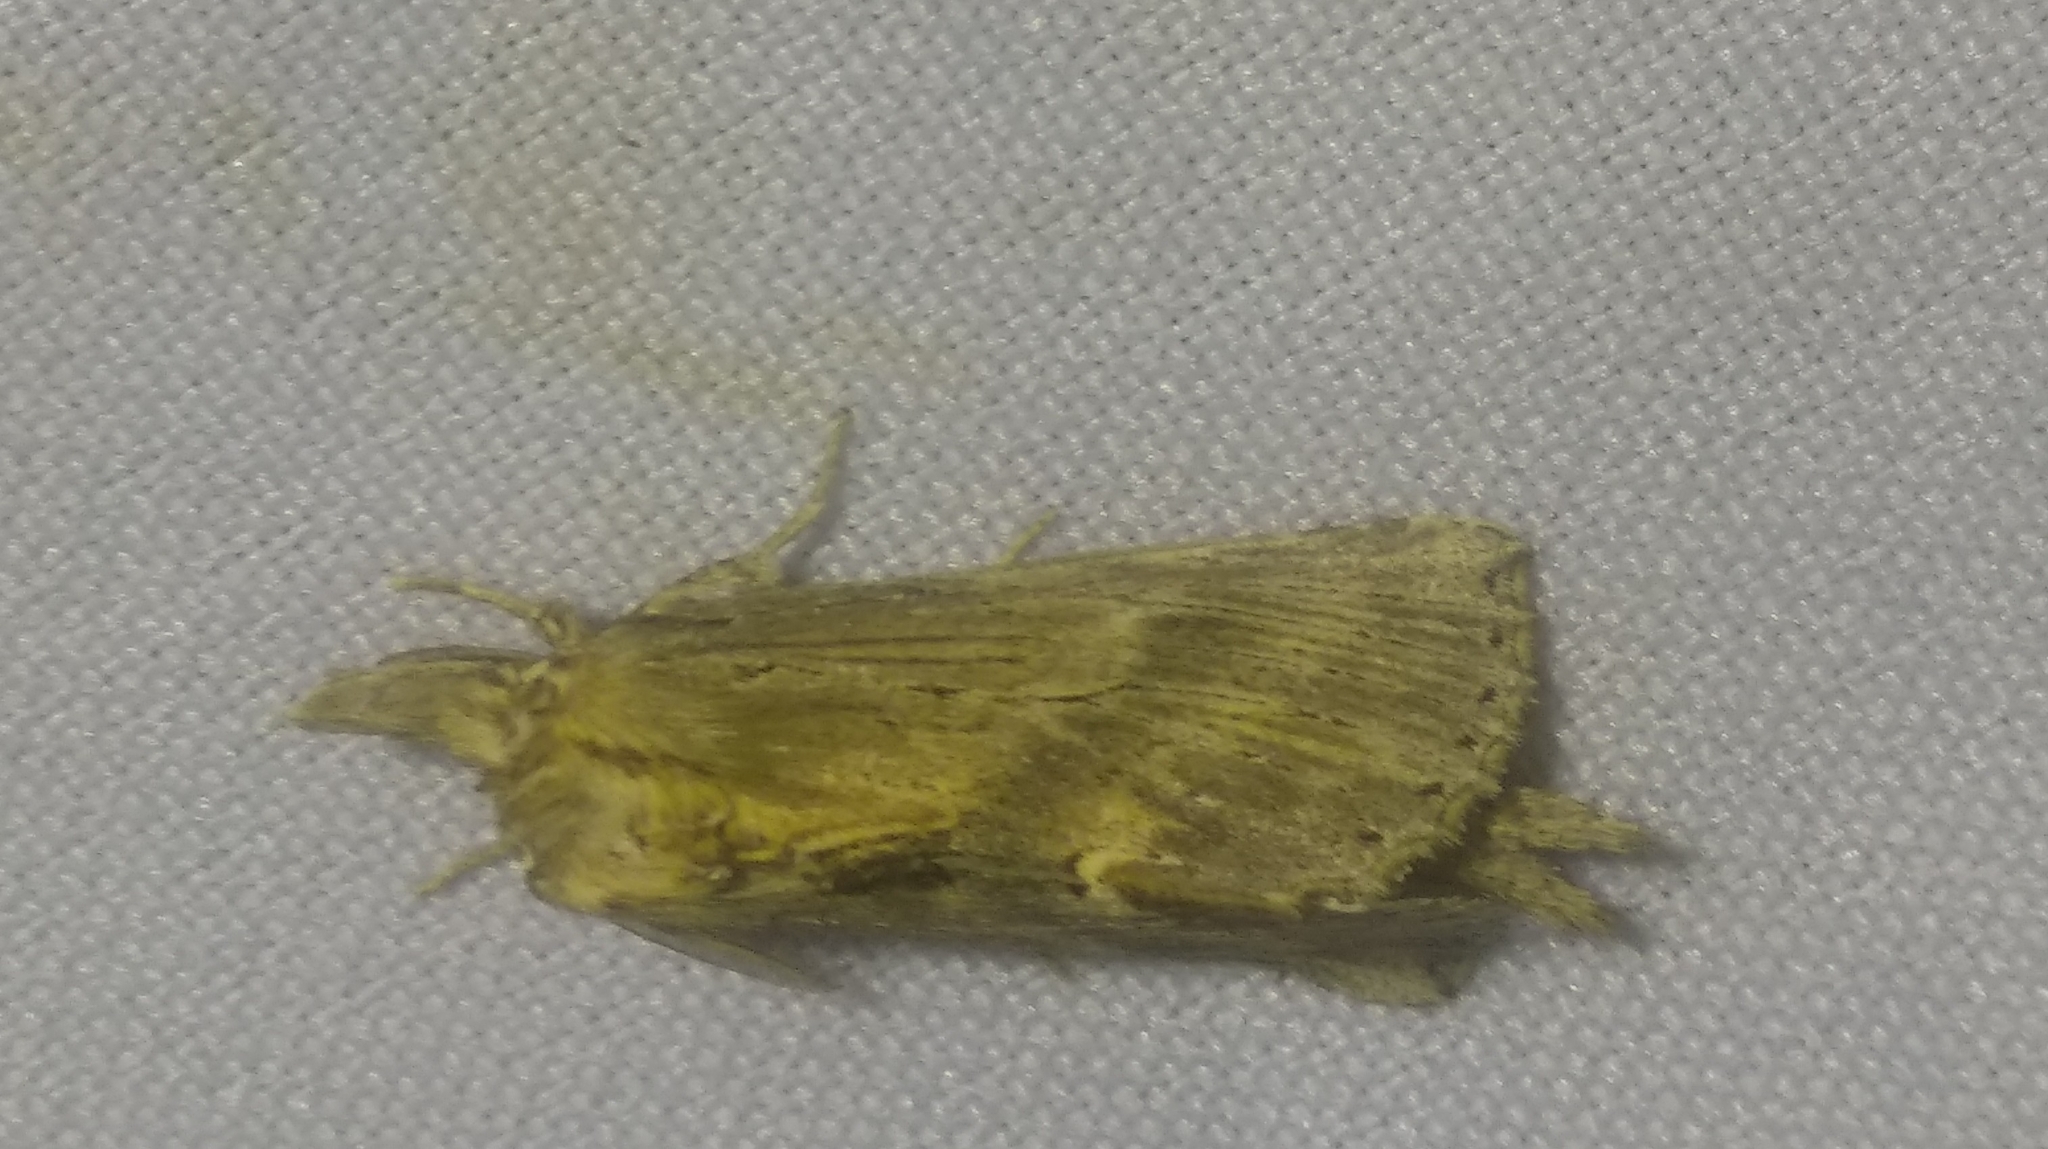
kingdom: Animalia
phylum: Arthropoda
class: Insecta
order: Lepidoptera
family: Notodontidae
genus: Pterostoma
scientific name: Pterostoma palpina
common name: Pale prominent
